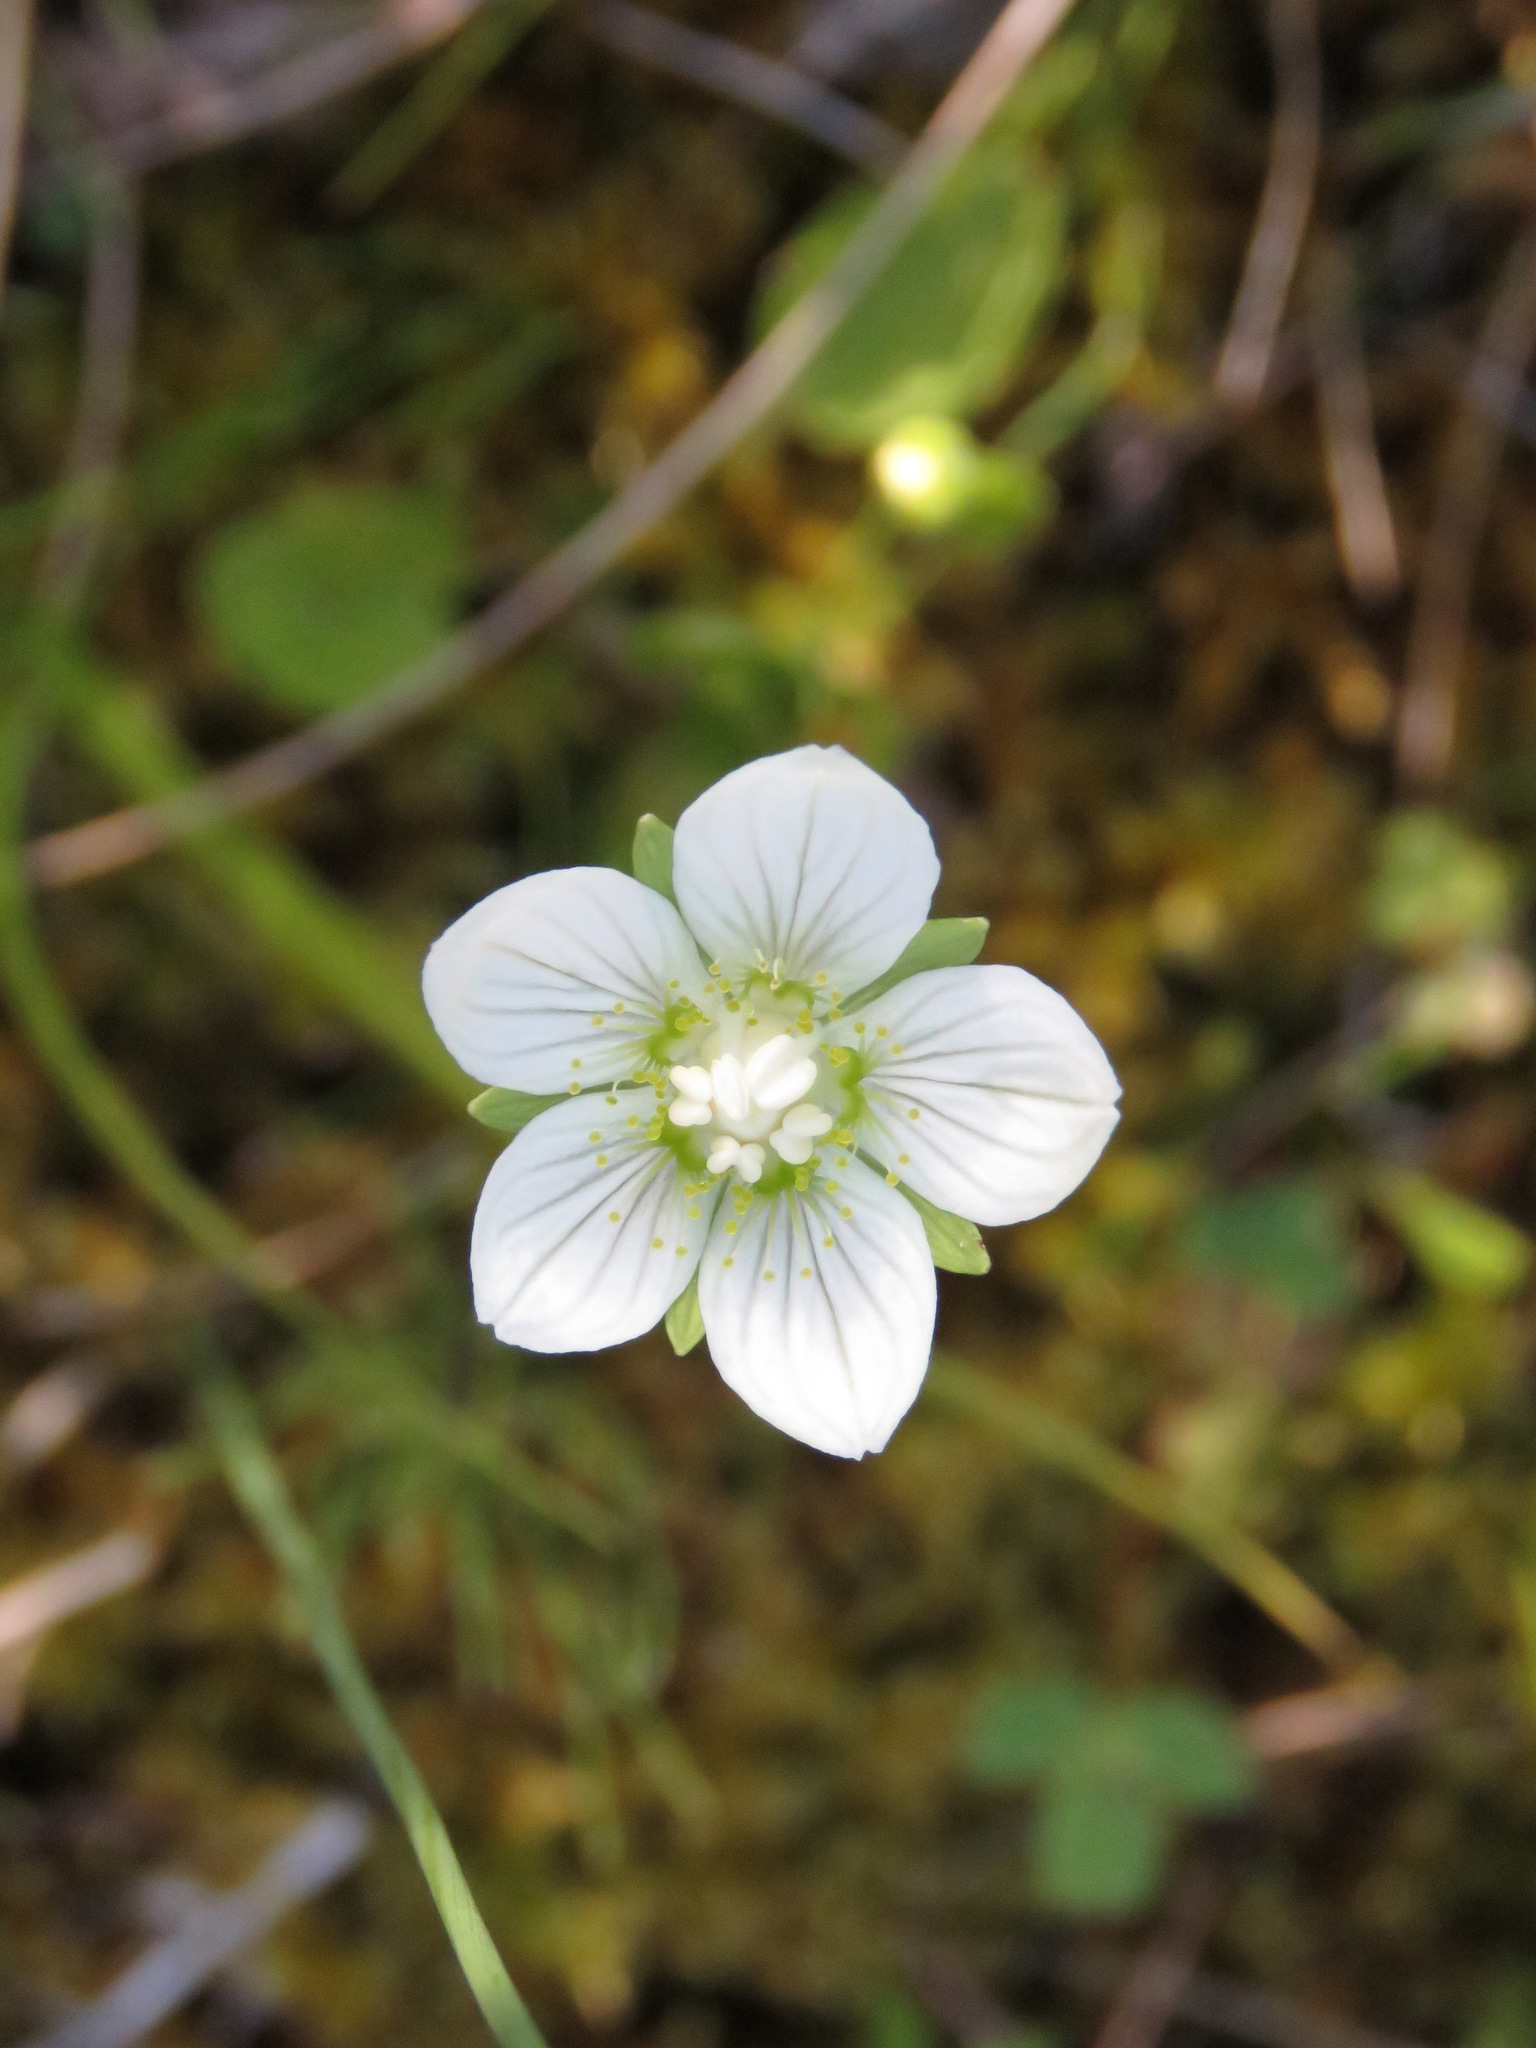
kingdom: Plantae
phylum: Tracheophyta
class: Magnoliopsida
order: Celastrales
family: Parnassiaceae
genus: Parnassia
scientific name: Parnassia palustris
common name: Grass-of-parnassus
